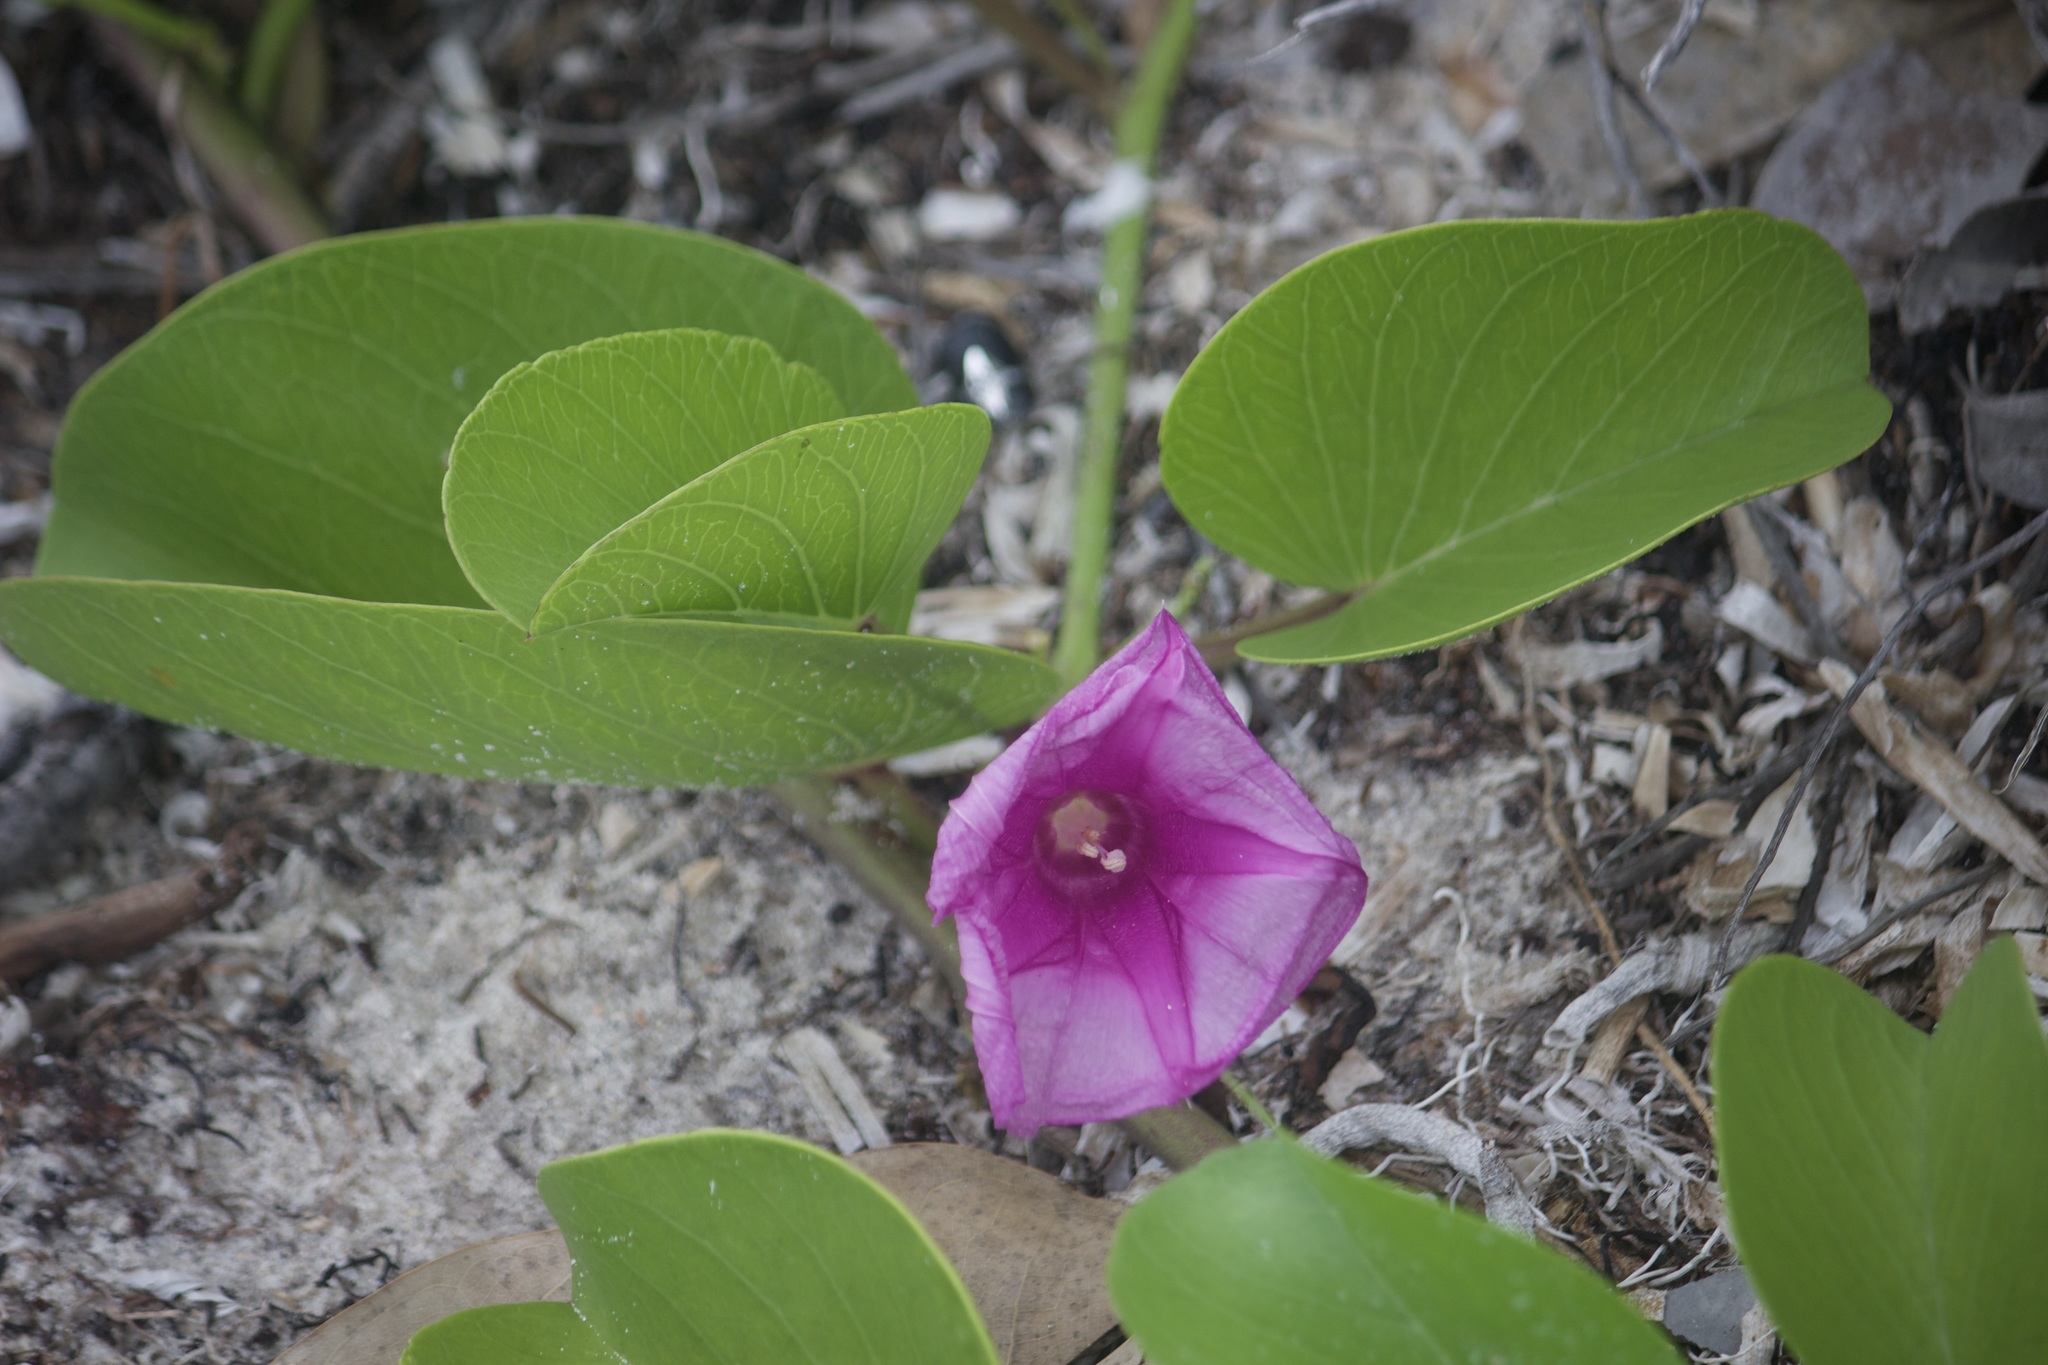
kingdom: Plantae
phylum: Tracheophyta
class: Magnoliopsida
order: Solanales
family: Convolvulaceae
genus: Ipomoea
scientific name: Ipomoea pes-caprae
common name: Beach morning glory
